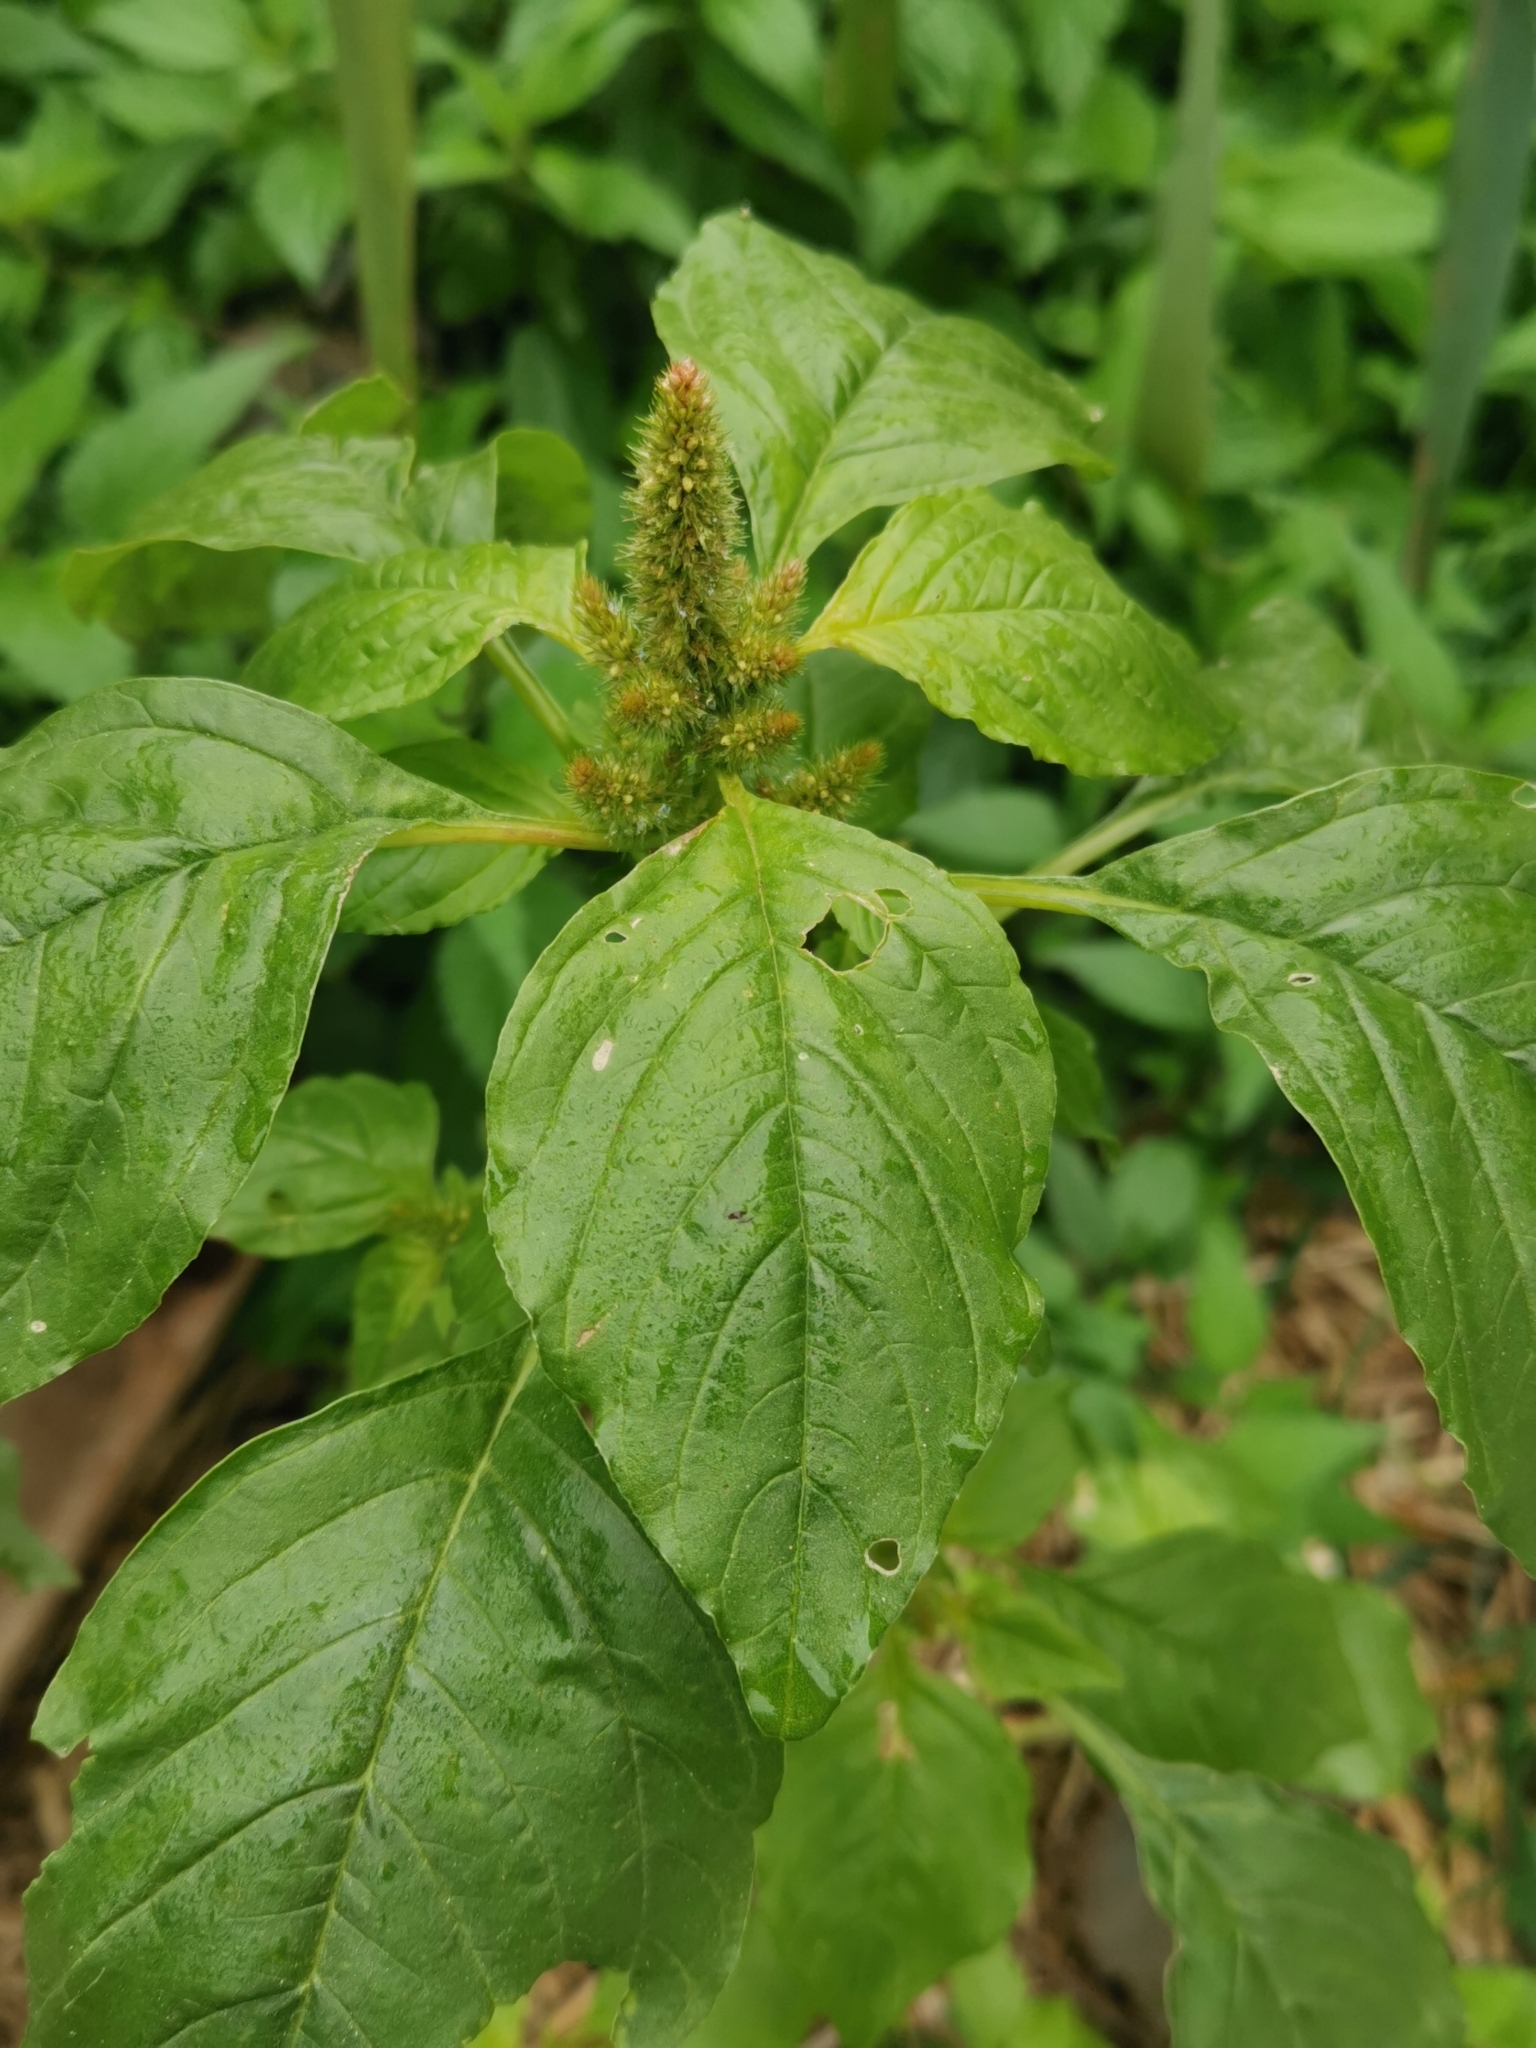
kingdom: Plantae
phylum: Tracheophyta
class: Magnoliopsida
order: Caryophyllales
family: Amaranthaceae
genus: Amaranthus
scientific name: Amaranthus retroflexus
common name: Redroot amaranth
